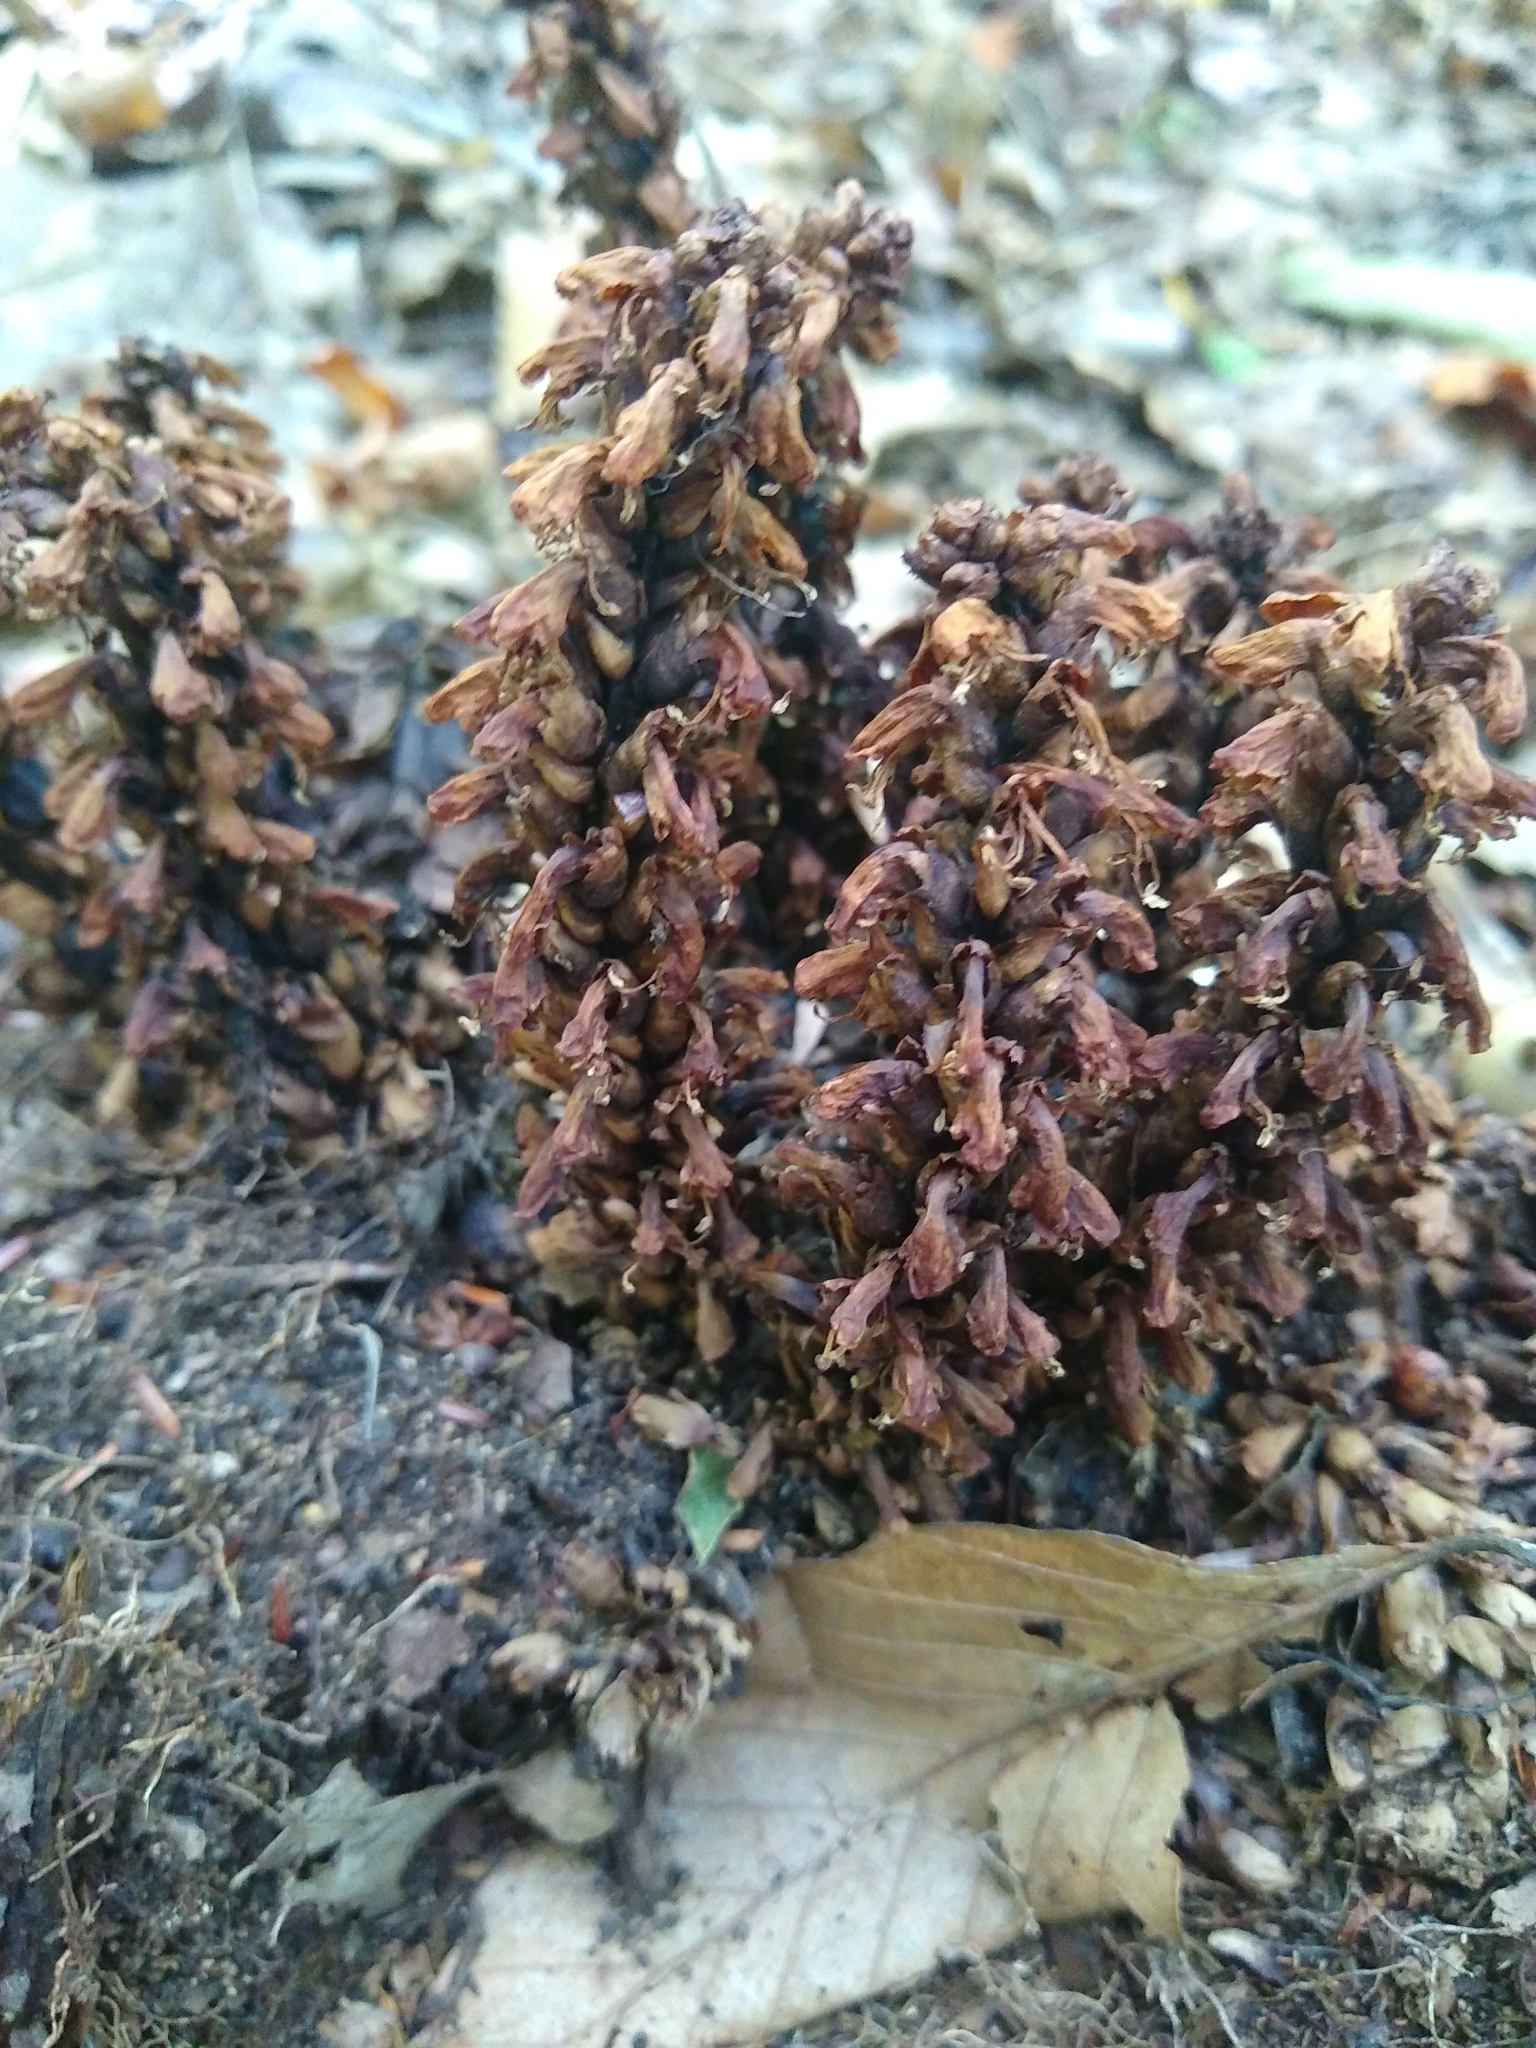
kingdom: Plantae
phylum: Tracheophyta
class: Magnoliopsida
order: Lamiales
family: Orobanchaceae
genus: Conopholis
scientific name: Conopholis americana
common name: American cancer-root
